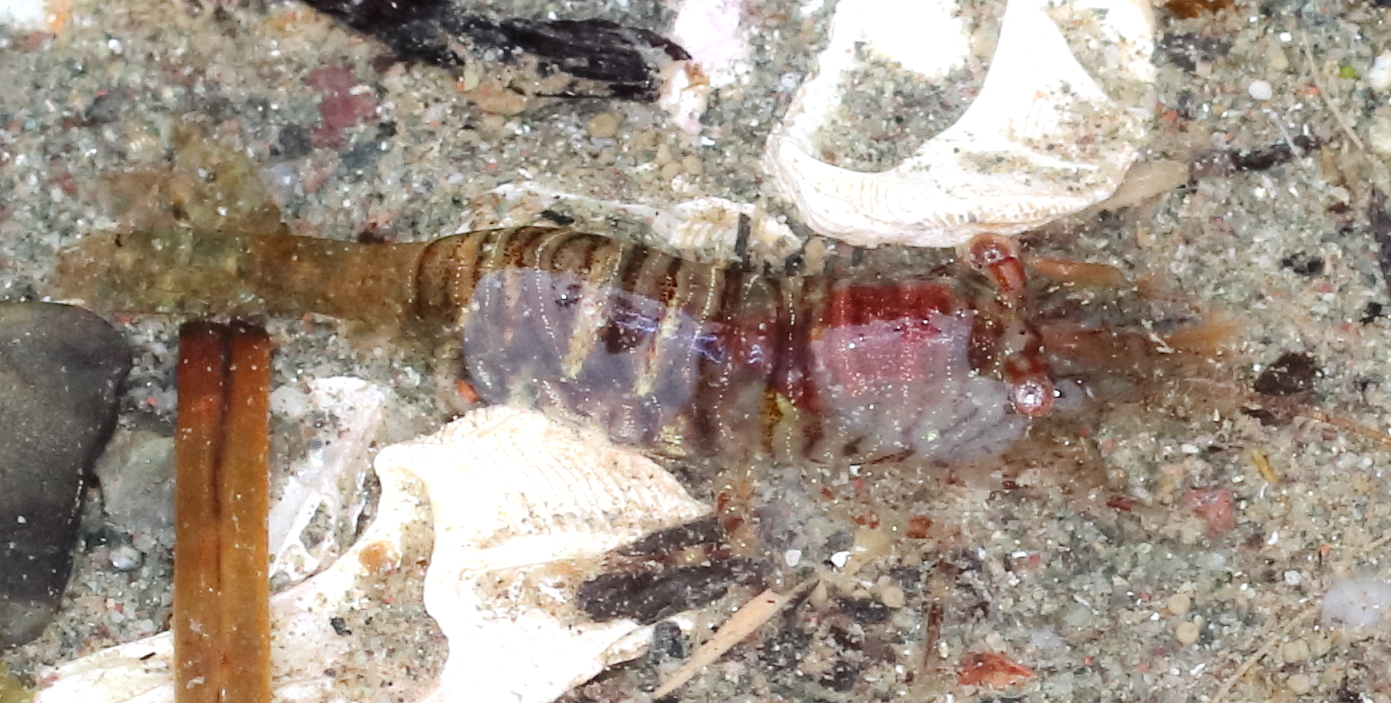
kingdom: Animalia
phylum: Arthropoda
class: Malacostraca
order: Decapoda
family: Thoridae
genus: Heptacarpus
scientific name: Heptacarpus pugettensis
